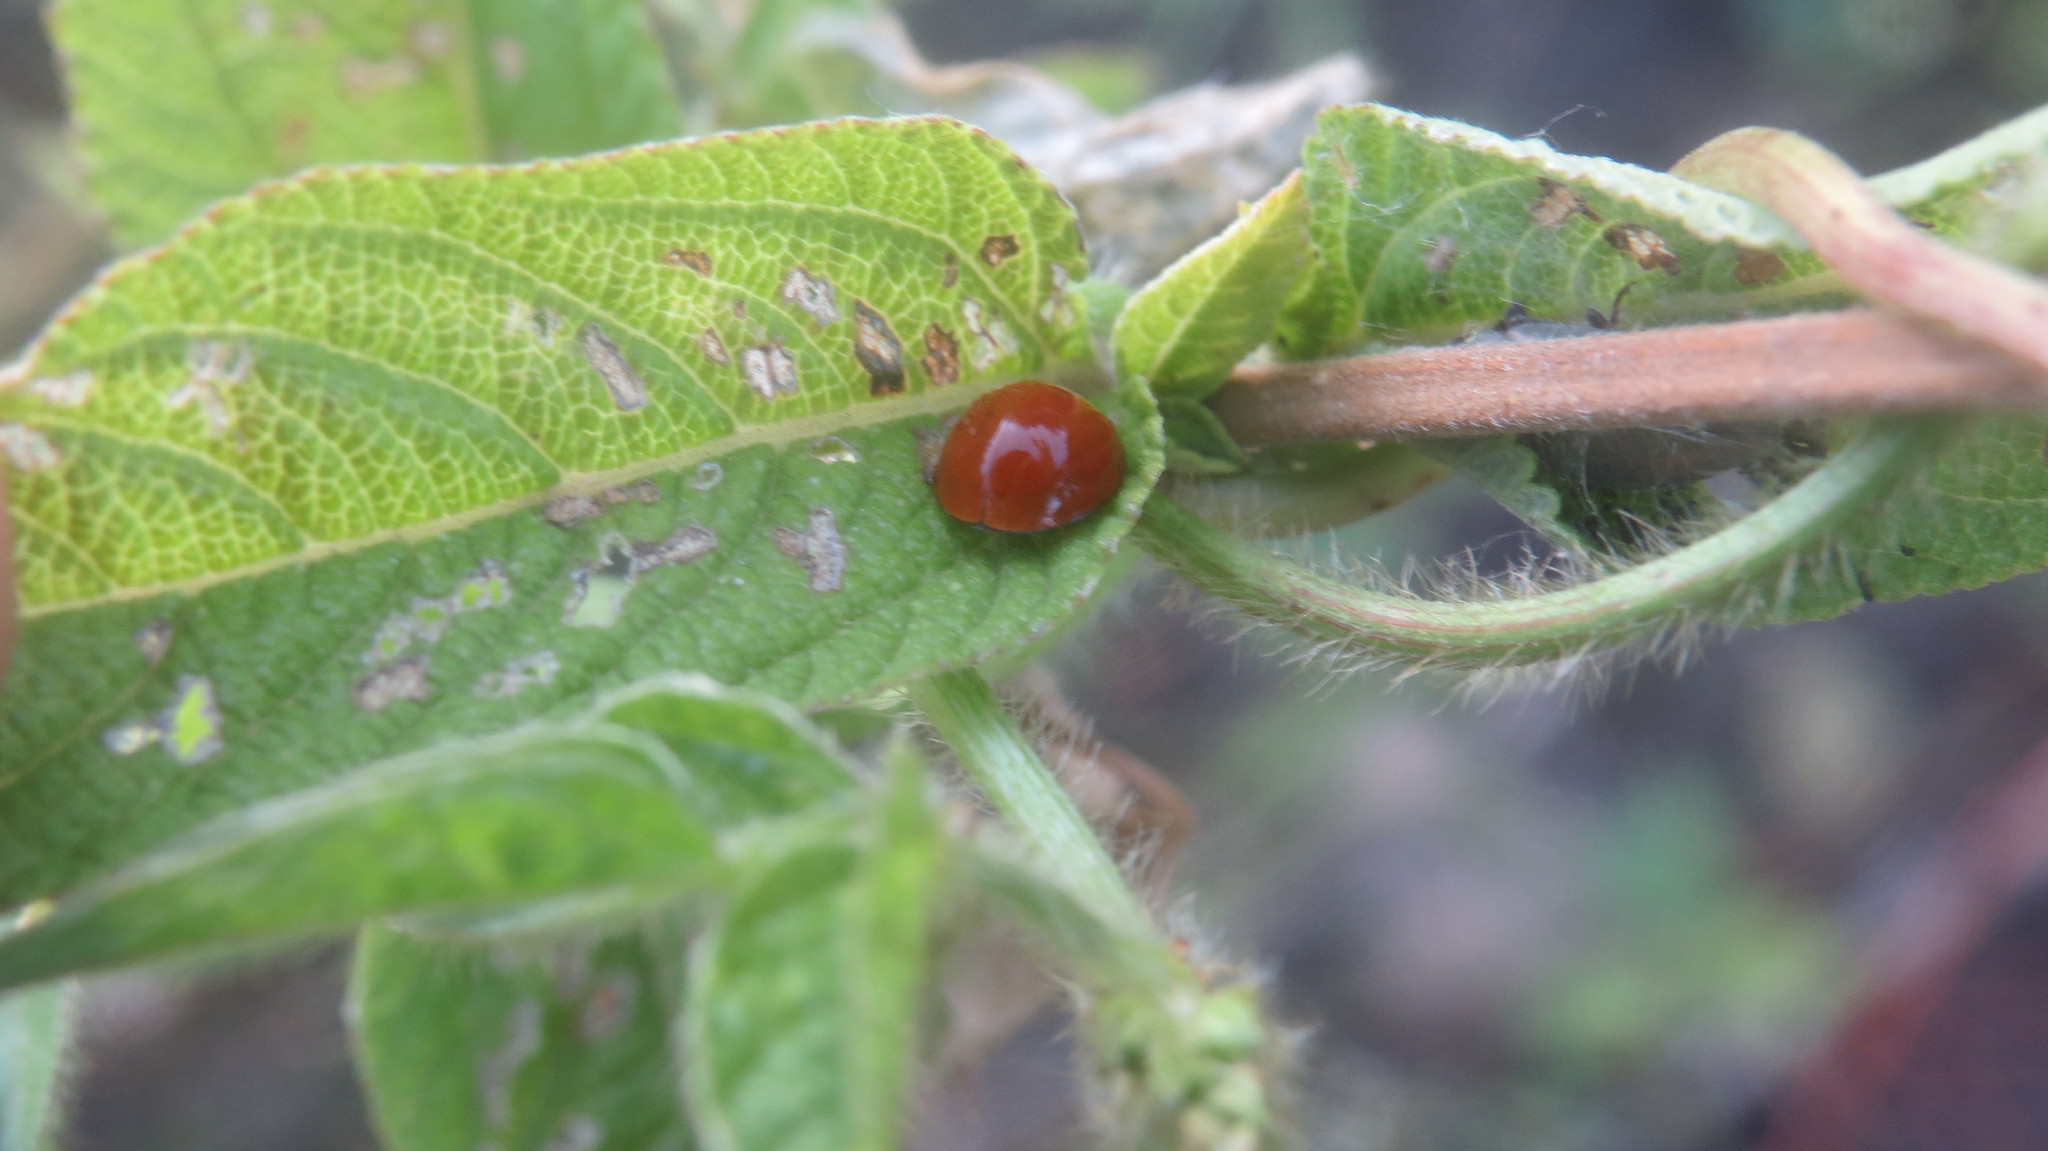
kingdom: Animalia
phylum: Arthropoda
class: Insecta
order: Coleoptera
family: Coccinellidae
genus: Cycloneda
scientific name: Cycloneda sanguinea
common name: Ladybird beetle
